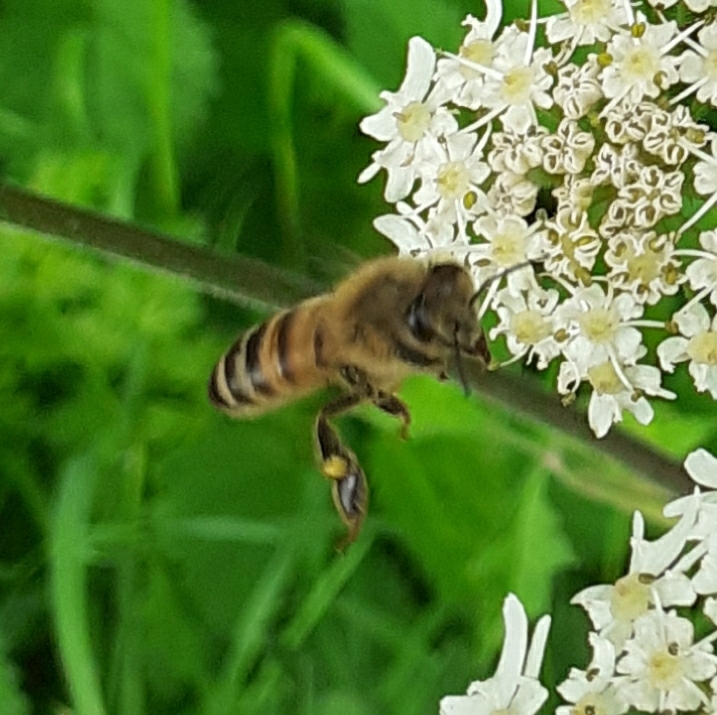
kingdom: Animalia
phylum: Arthropoda
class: Insecta
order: Hymenoptera
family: Apidae
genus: Apis
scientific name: Apis mellifera
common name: Honey bee
